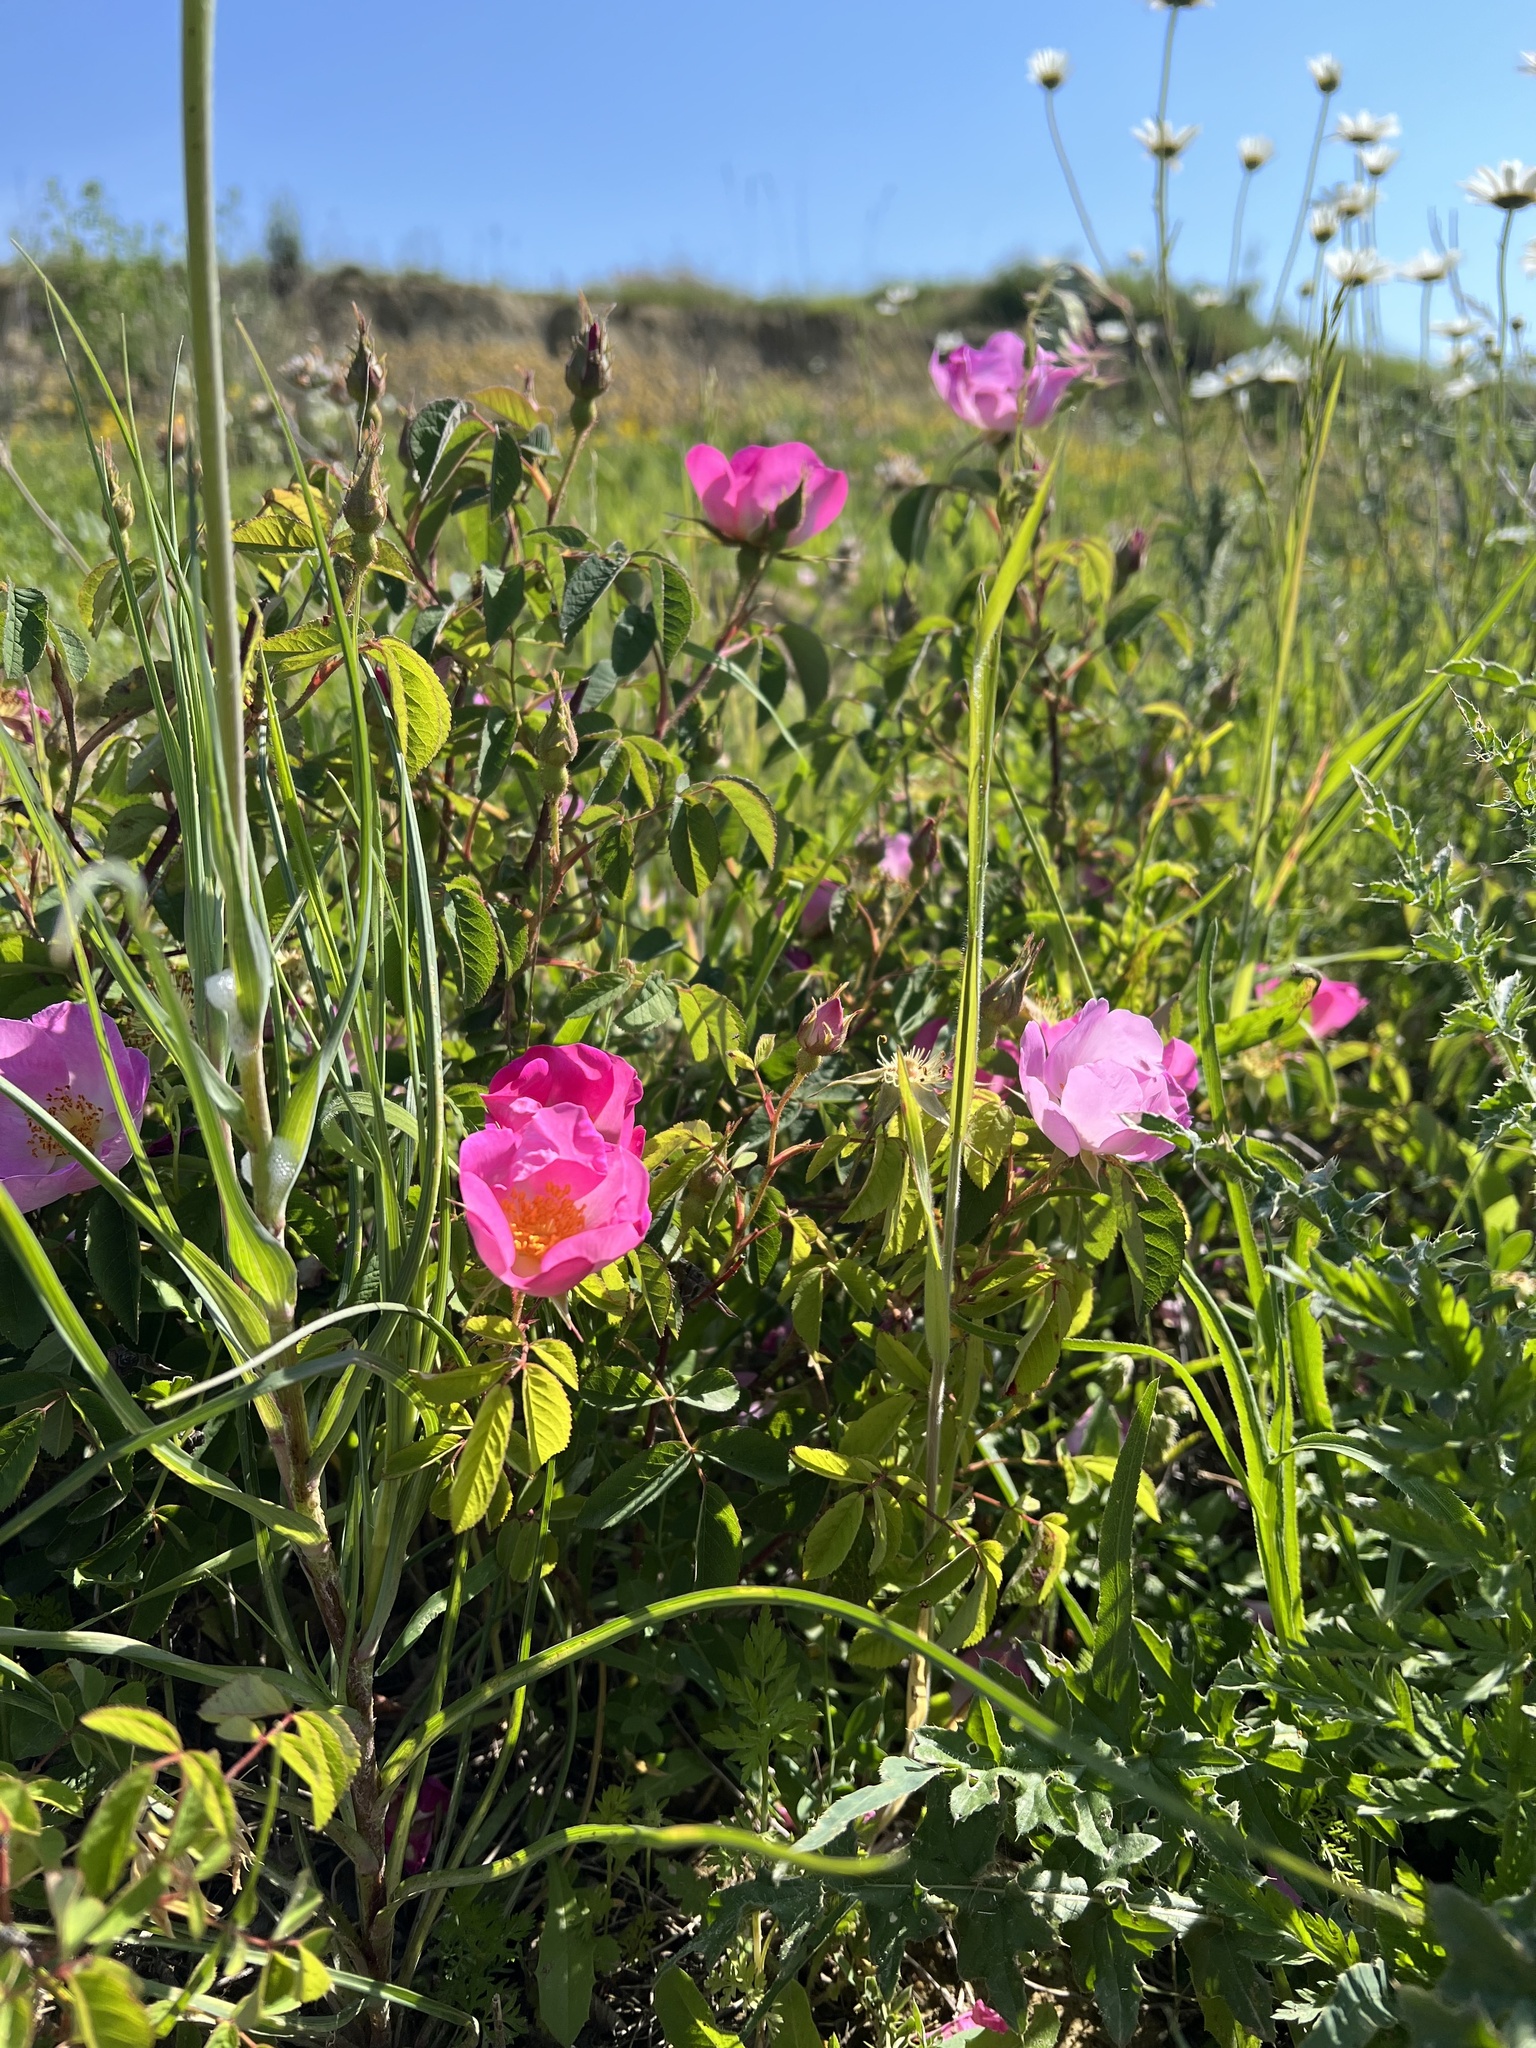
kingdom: Plantae
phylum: Tracheophyta
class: Magnoliopsida
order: Rosales
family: Rosaceae
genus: Rosa
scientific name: Rosa gallica
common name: French rose
